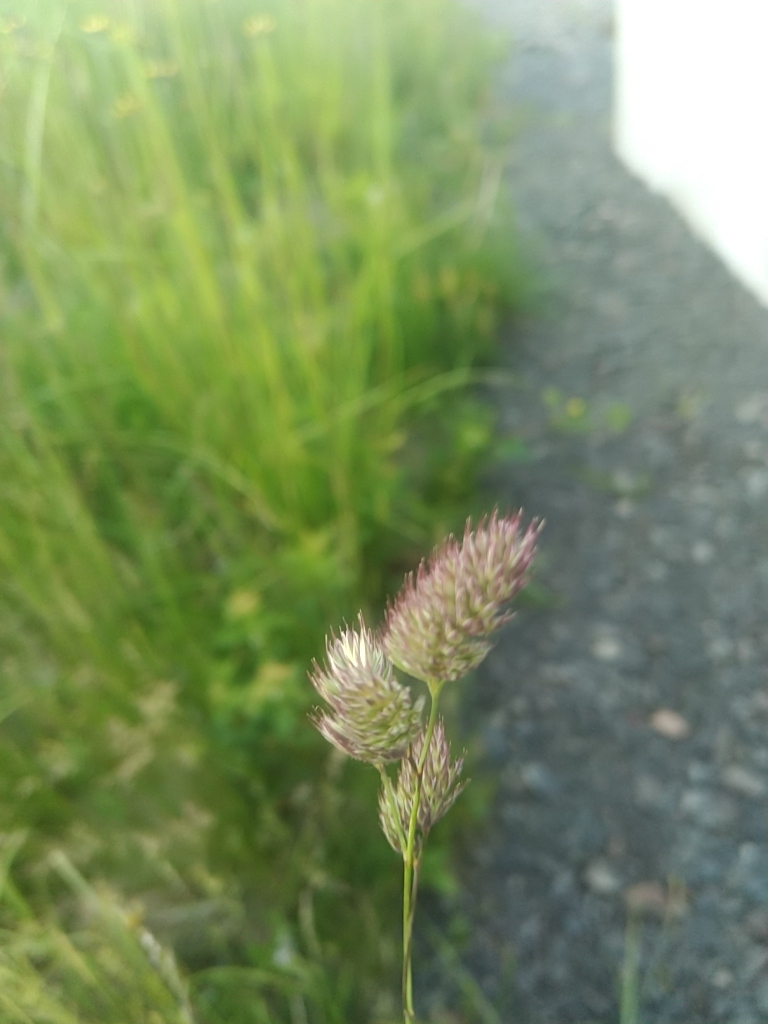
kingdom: Plantae
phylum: Tracheophyta
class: Liliopsida
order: Poales
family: Poaceae
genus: Dactylis
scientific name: Dactylis glomerata
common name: Orchardgrass
